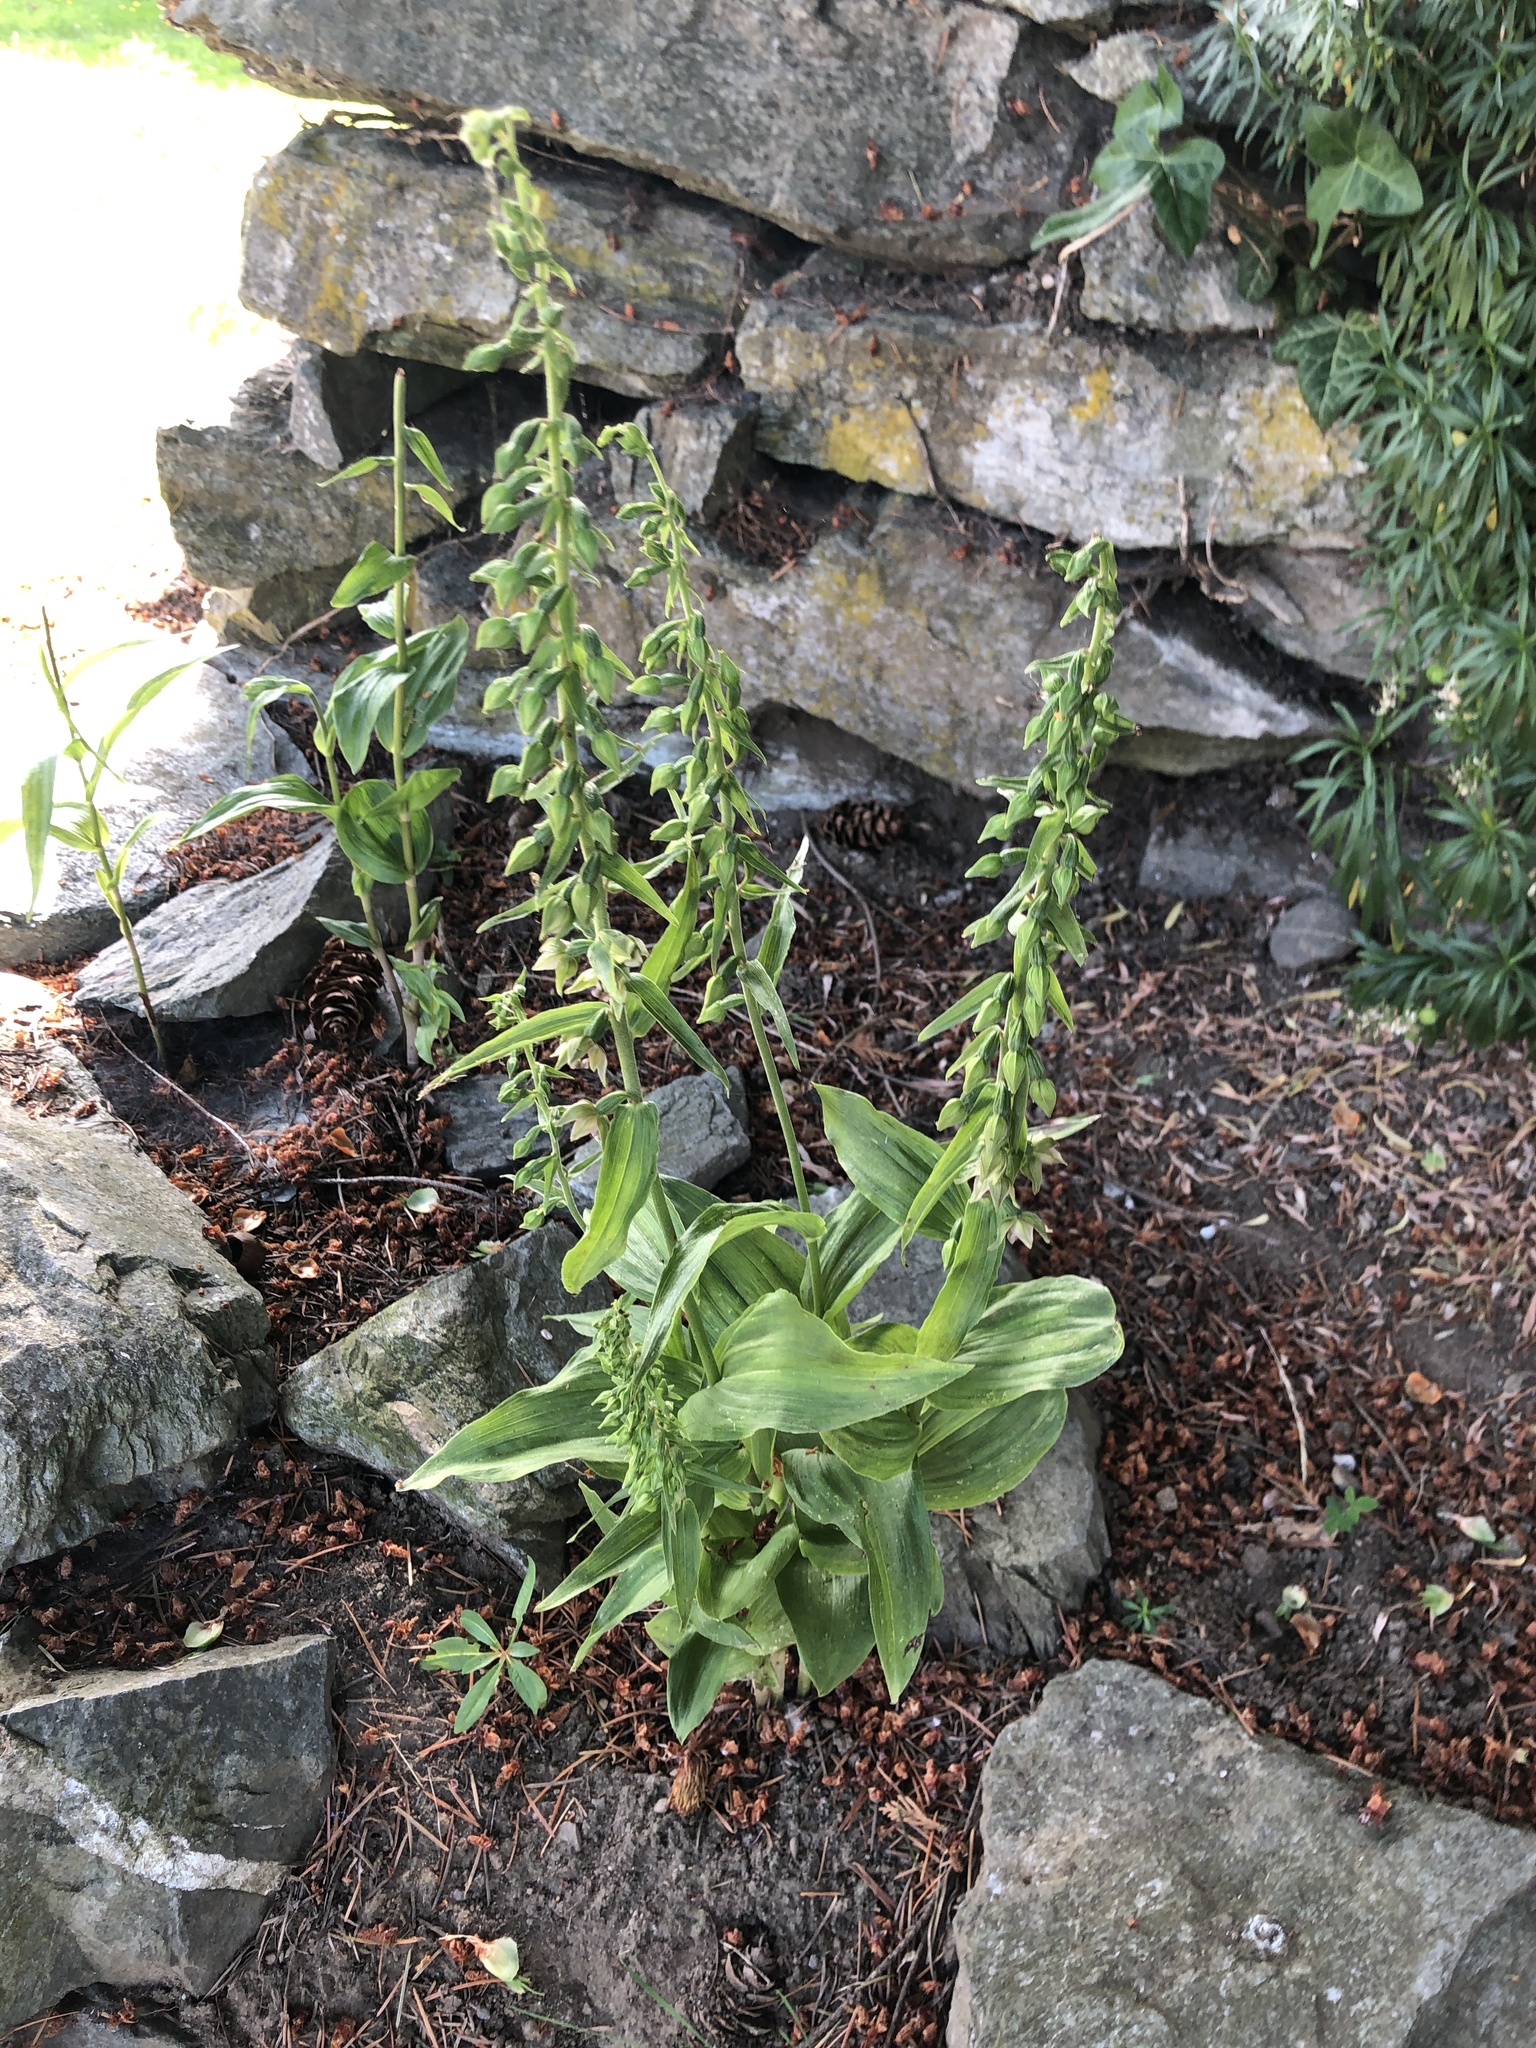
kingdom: Plantae
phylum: Tracheophyta
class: Liliopsida
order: Asparagales
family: Orchidaceae
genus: Epipactis
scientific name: Epipactis helleborine
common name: Broad-leaved helleborine
